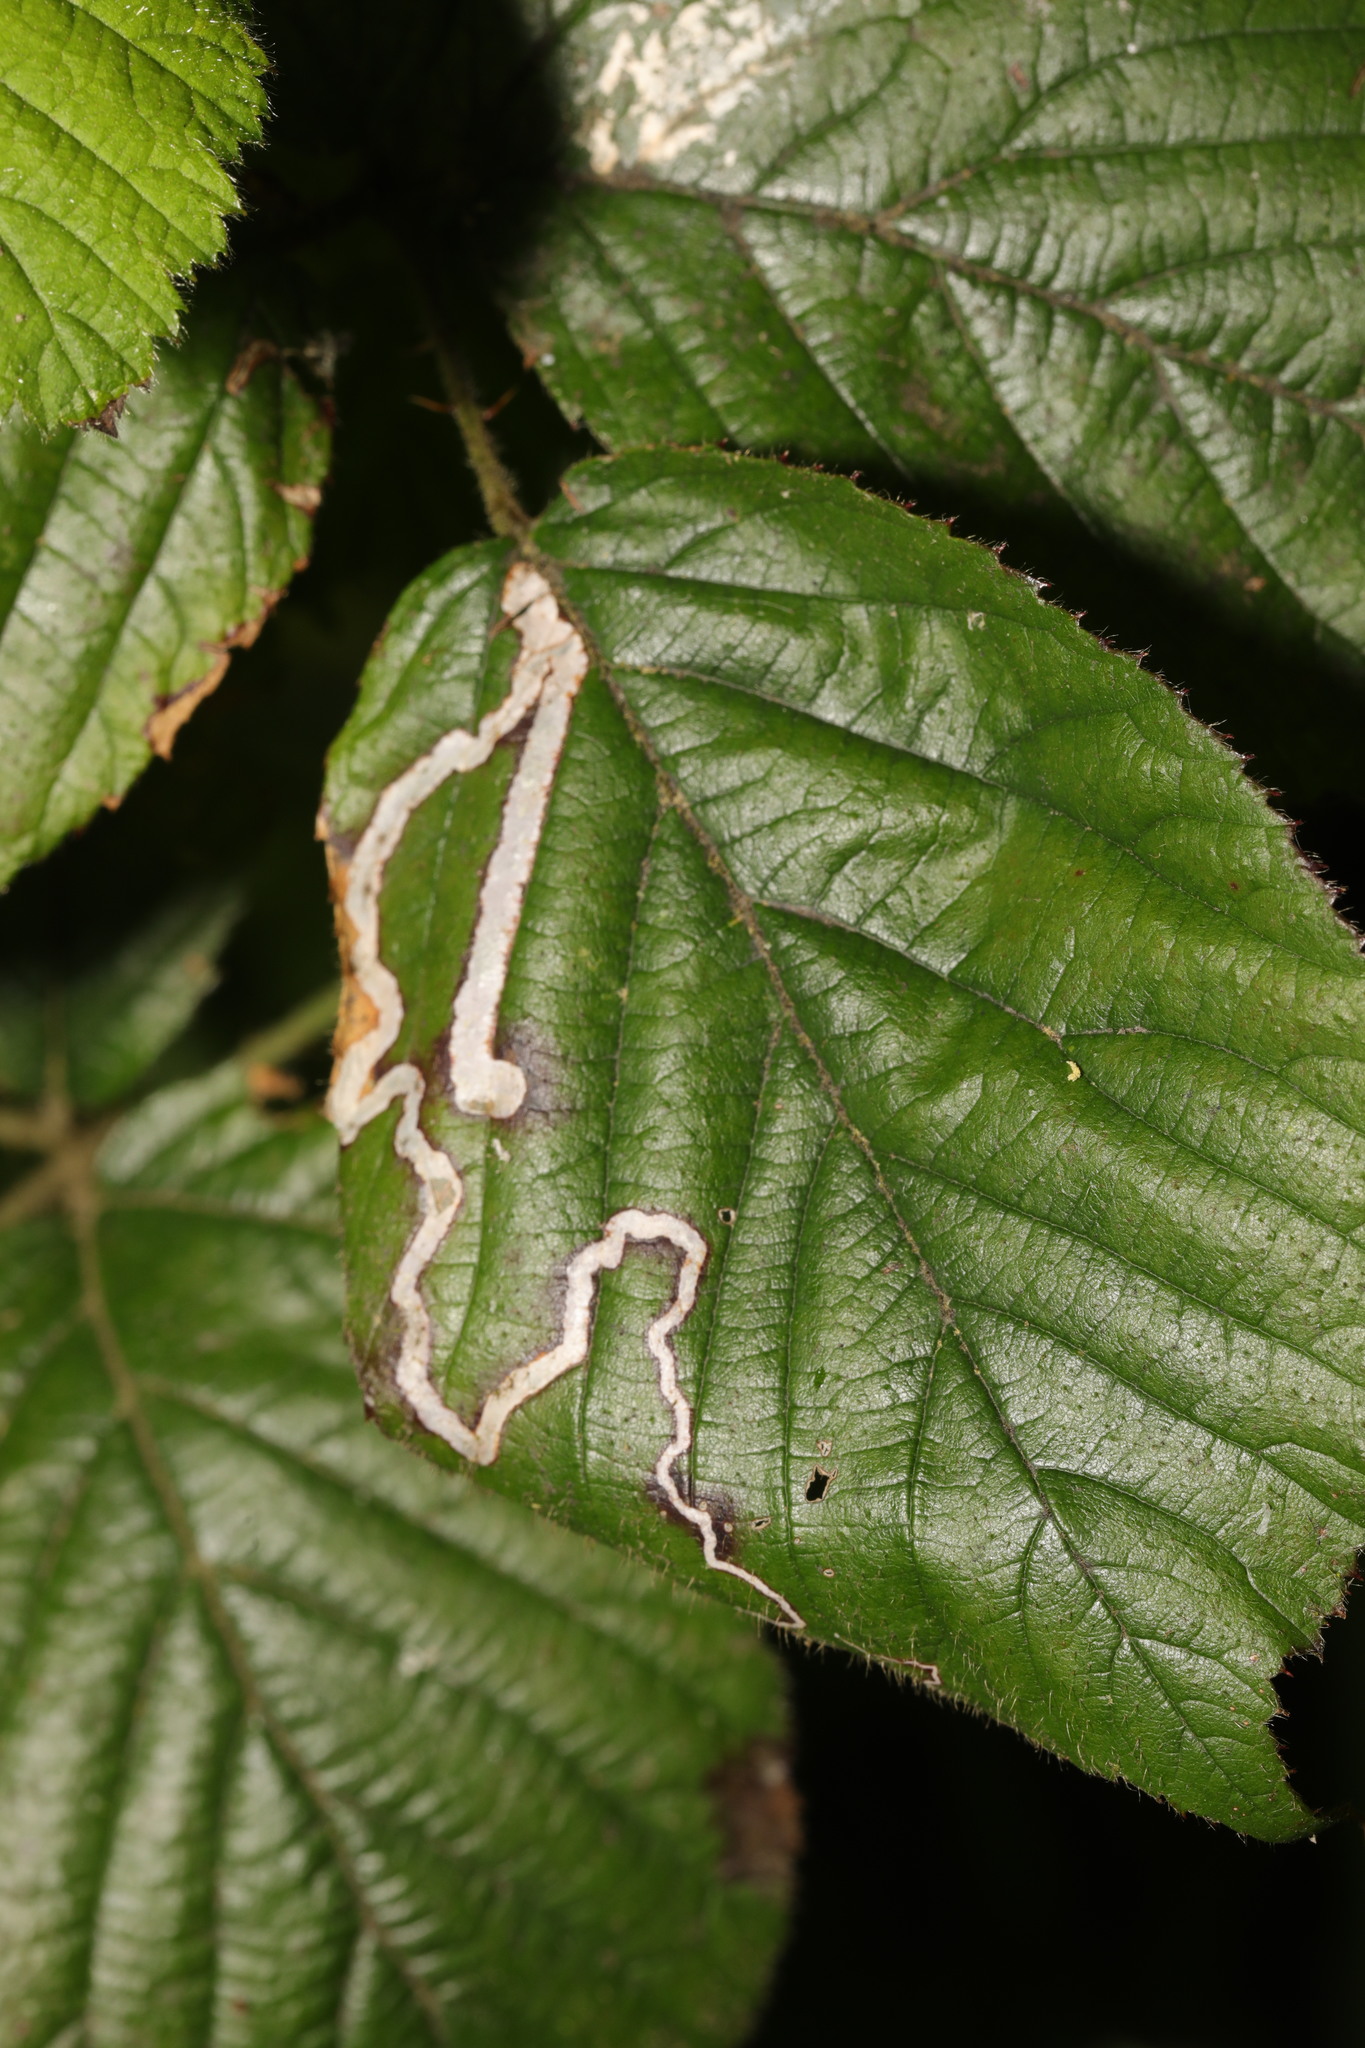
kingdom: Animalia
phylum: Arthropoda
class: Insecta
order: Lepidoptera
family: Nepticulidae
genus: Stigmella
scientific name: Stigmella aurella
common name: Golden pigmy
